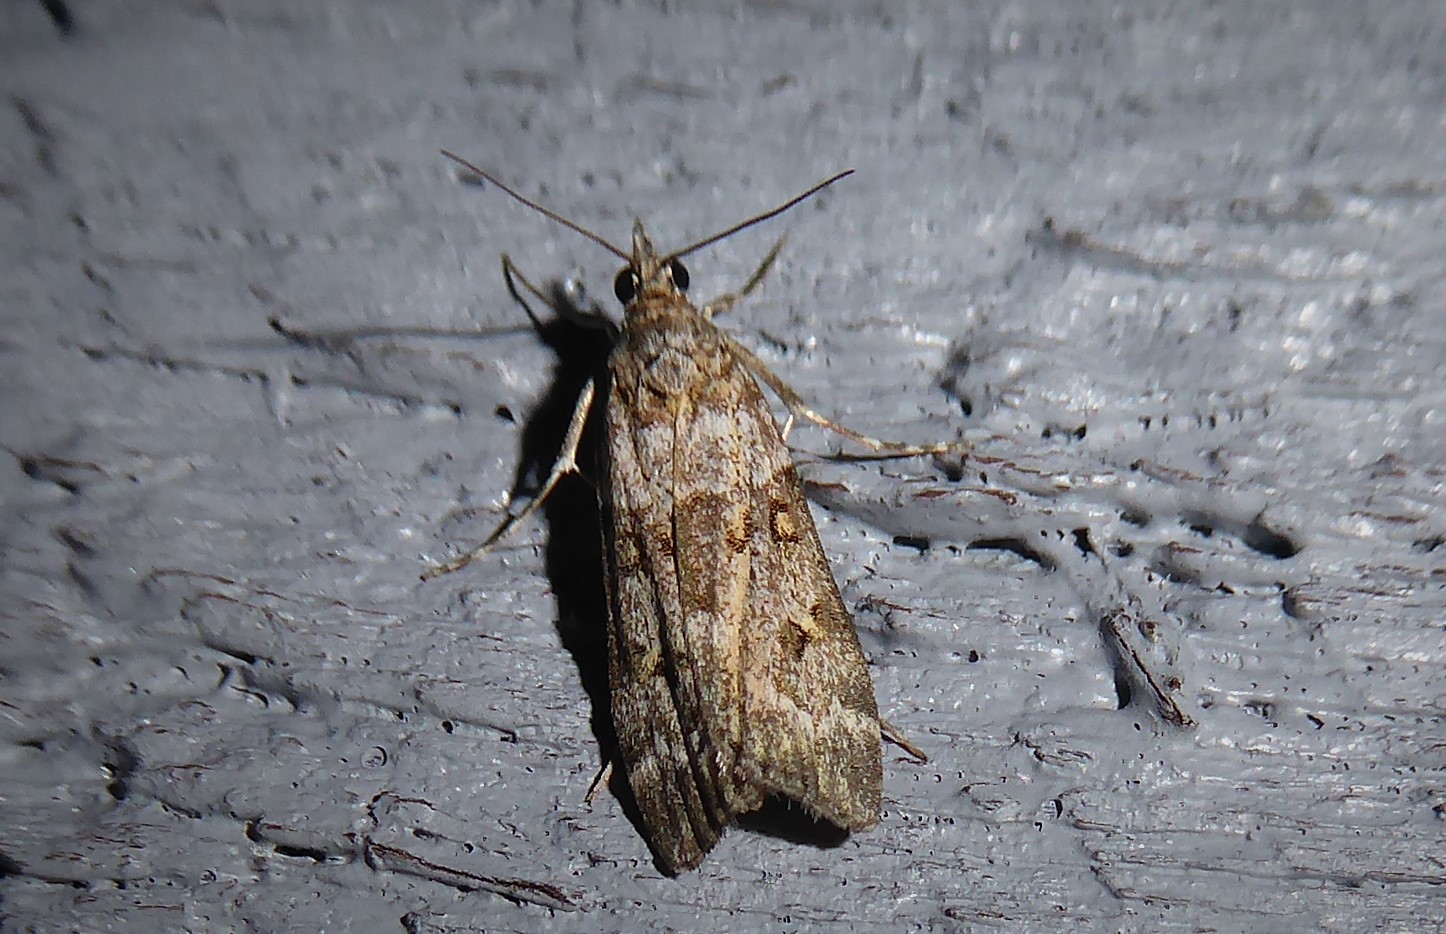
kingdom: Animalia
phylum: Arthropoda
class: Insecta
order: Lepidoptera
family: Crambidae
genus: Eudonia
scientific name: Eudonia diphtheralis
